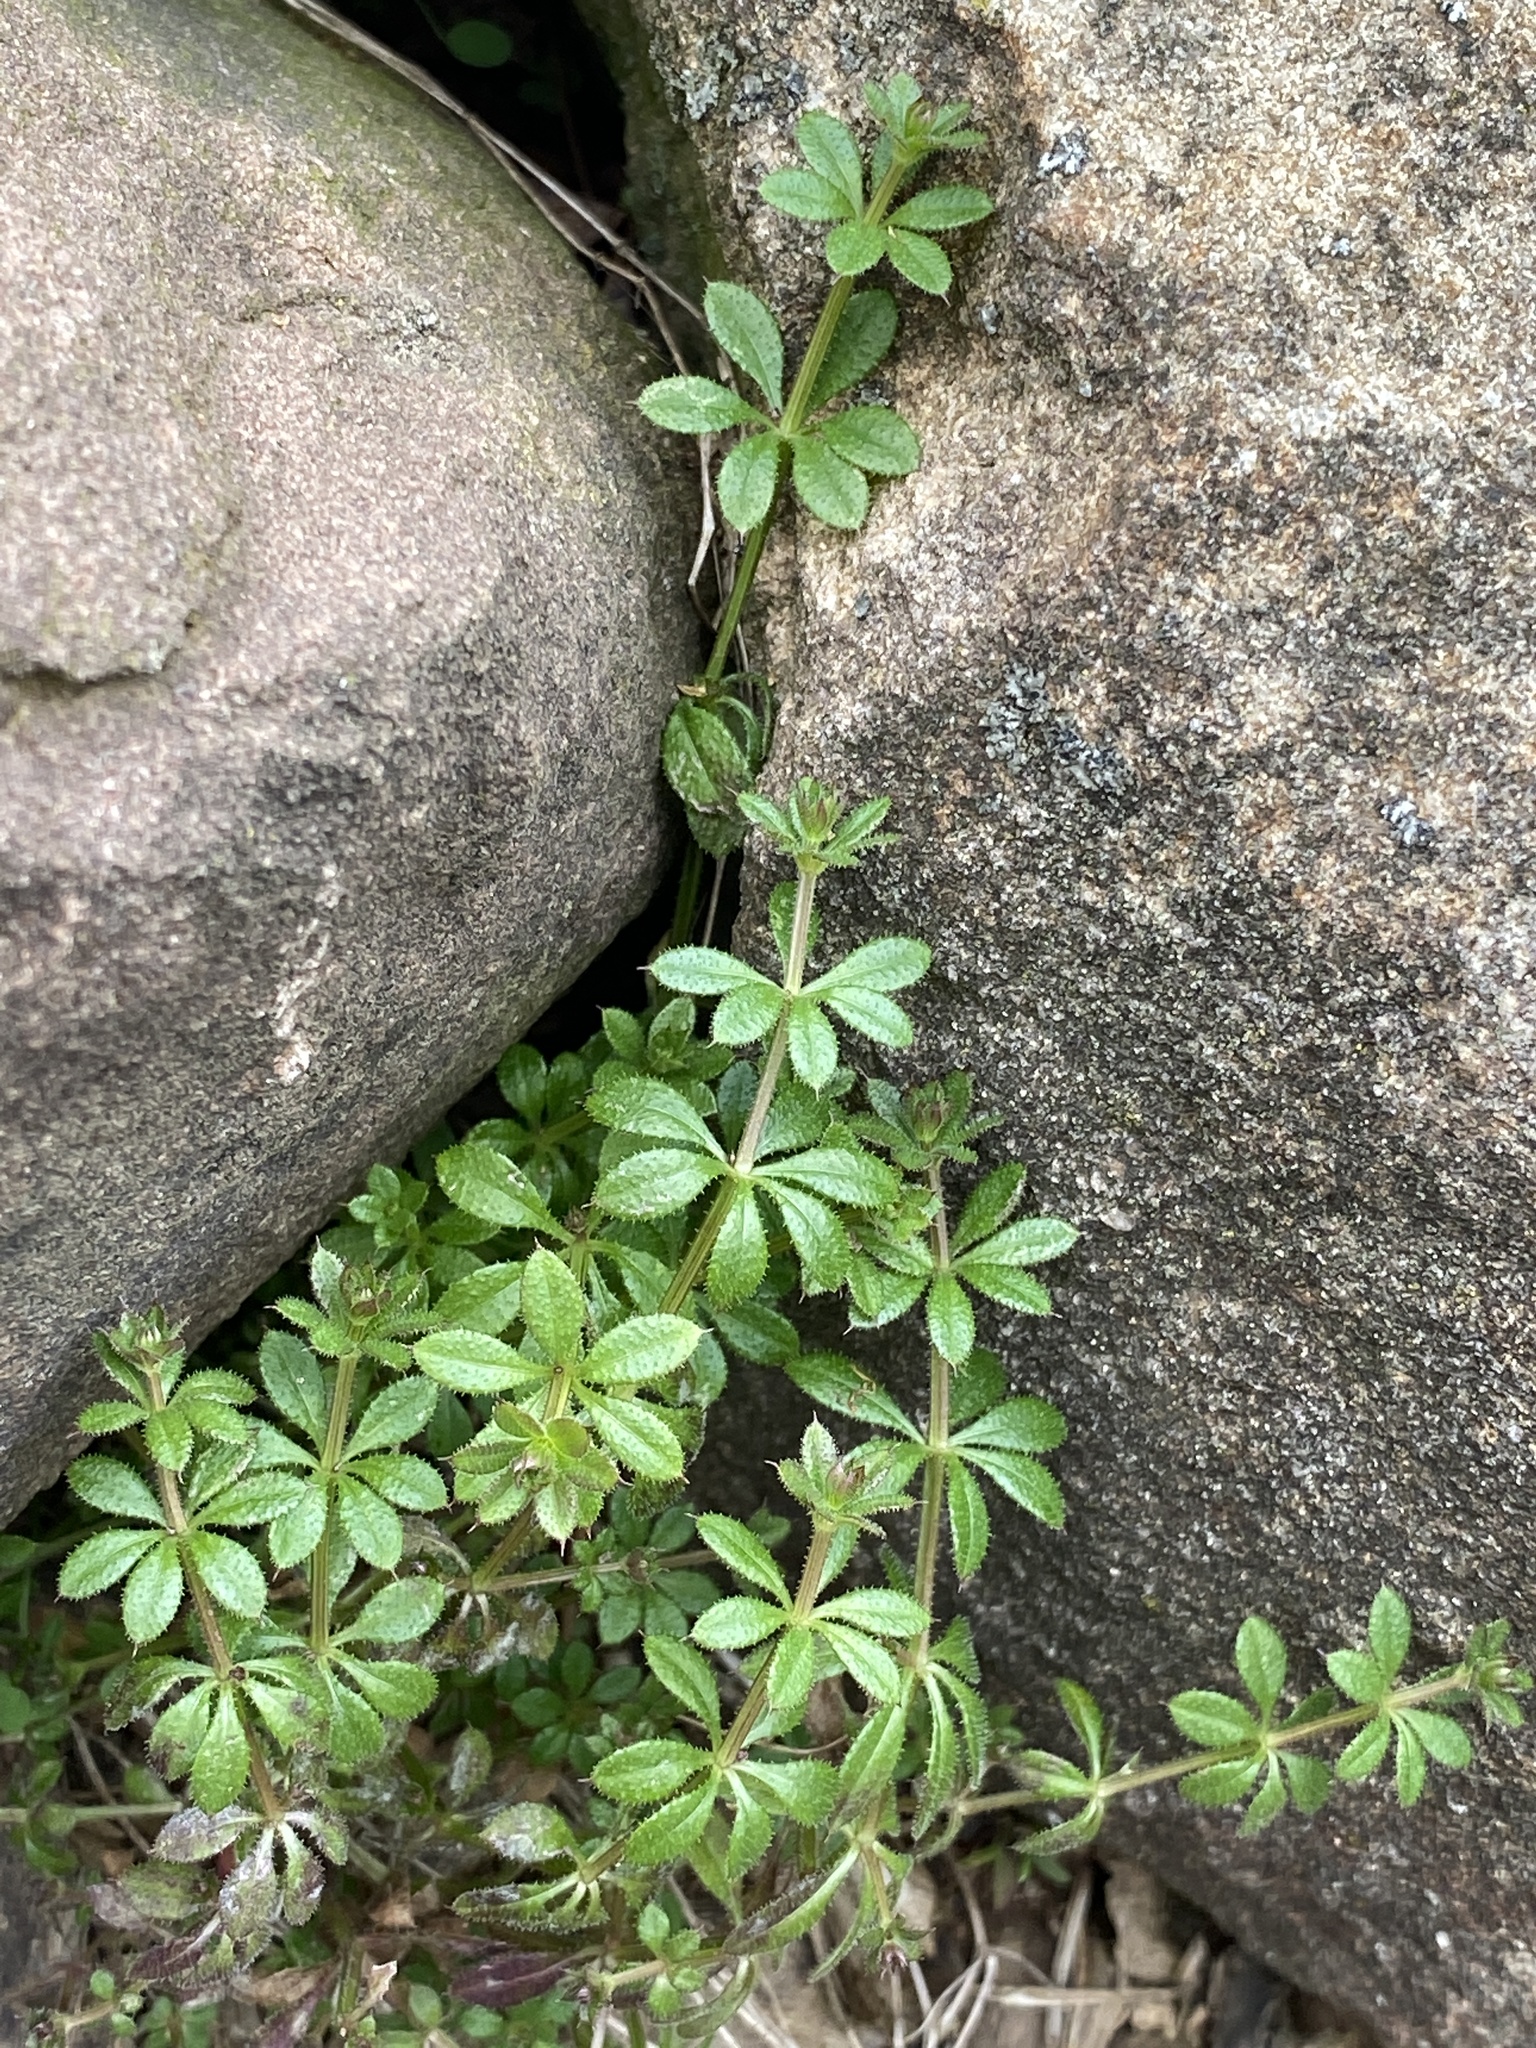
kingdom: Plantae
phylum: Tracheophyta
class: Magnoliopsida
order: Gentianales
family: Rubiaceae
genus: Galium
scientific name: Galium aparine
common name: Cleavers
